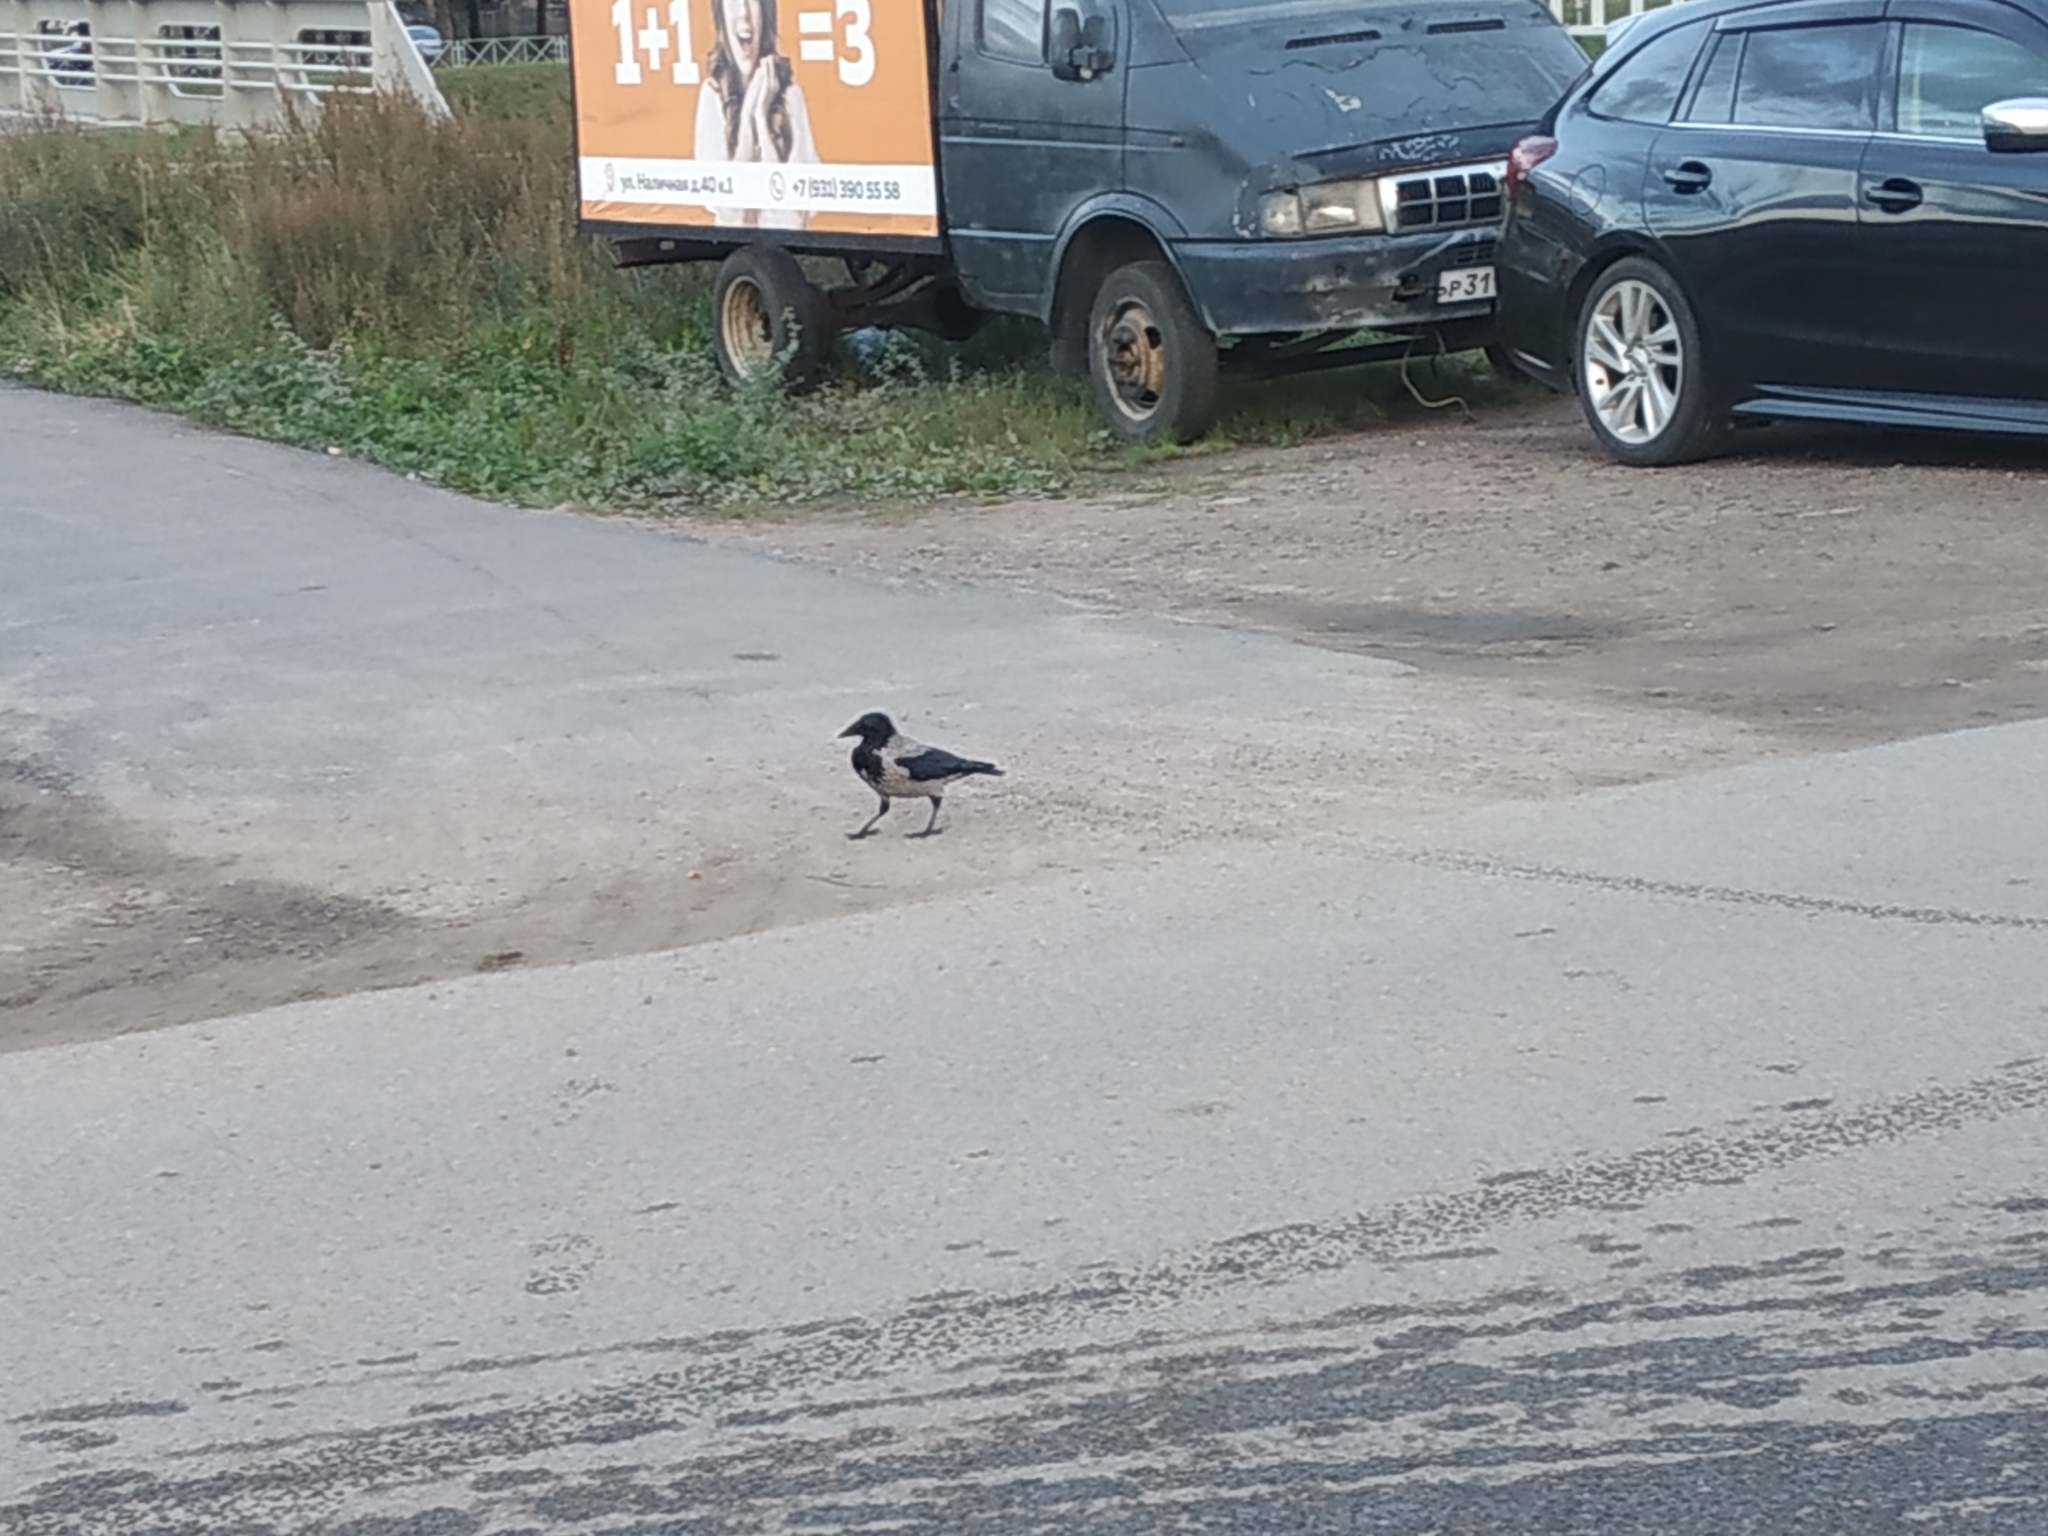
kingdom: Animalia
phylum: Chordata
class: Aves
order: Passeriformes
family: Corvidae
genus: Corvus
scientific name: Corvus cornix
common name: Hooded crow
